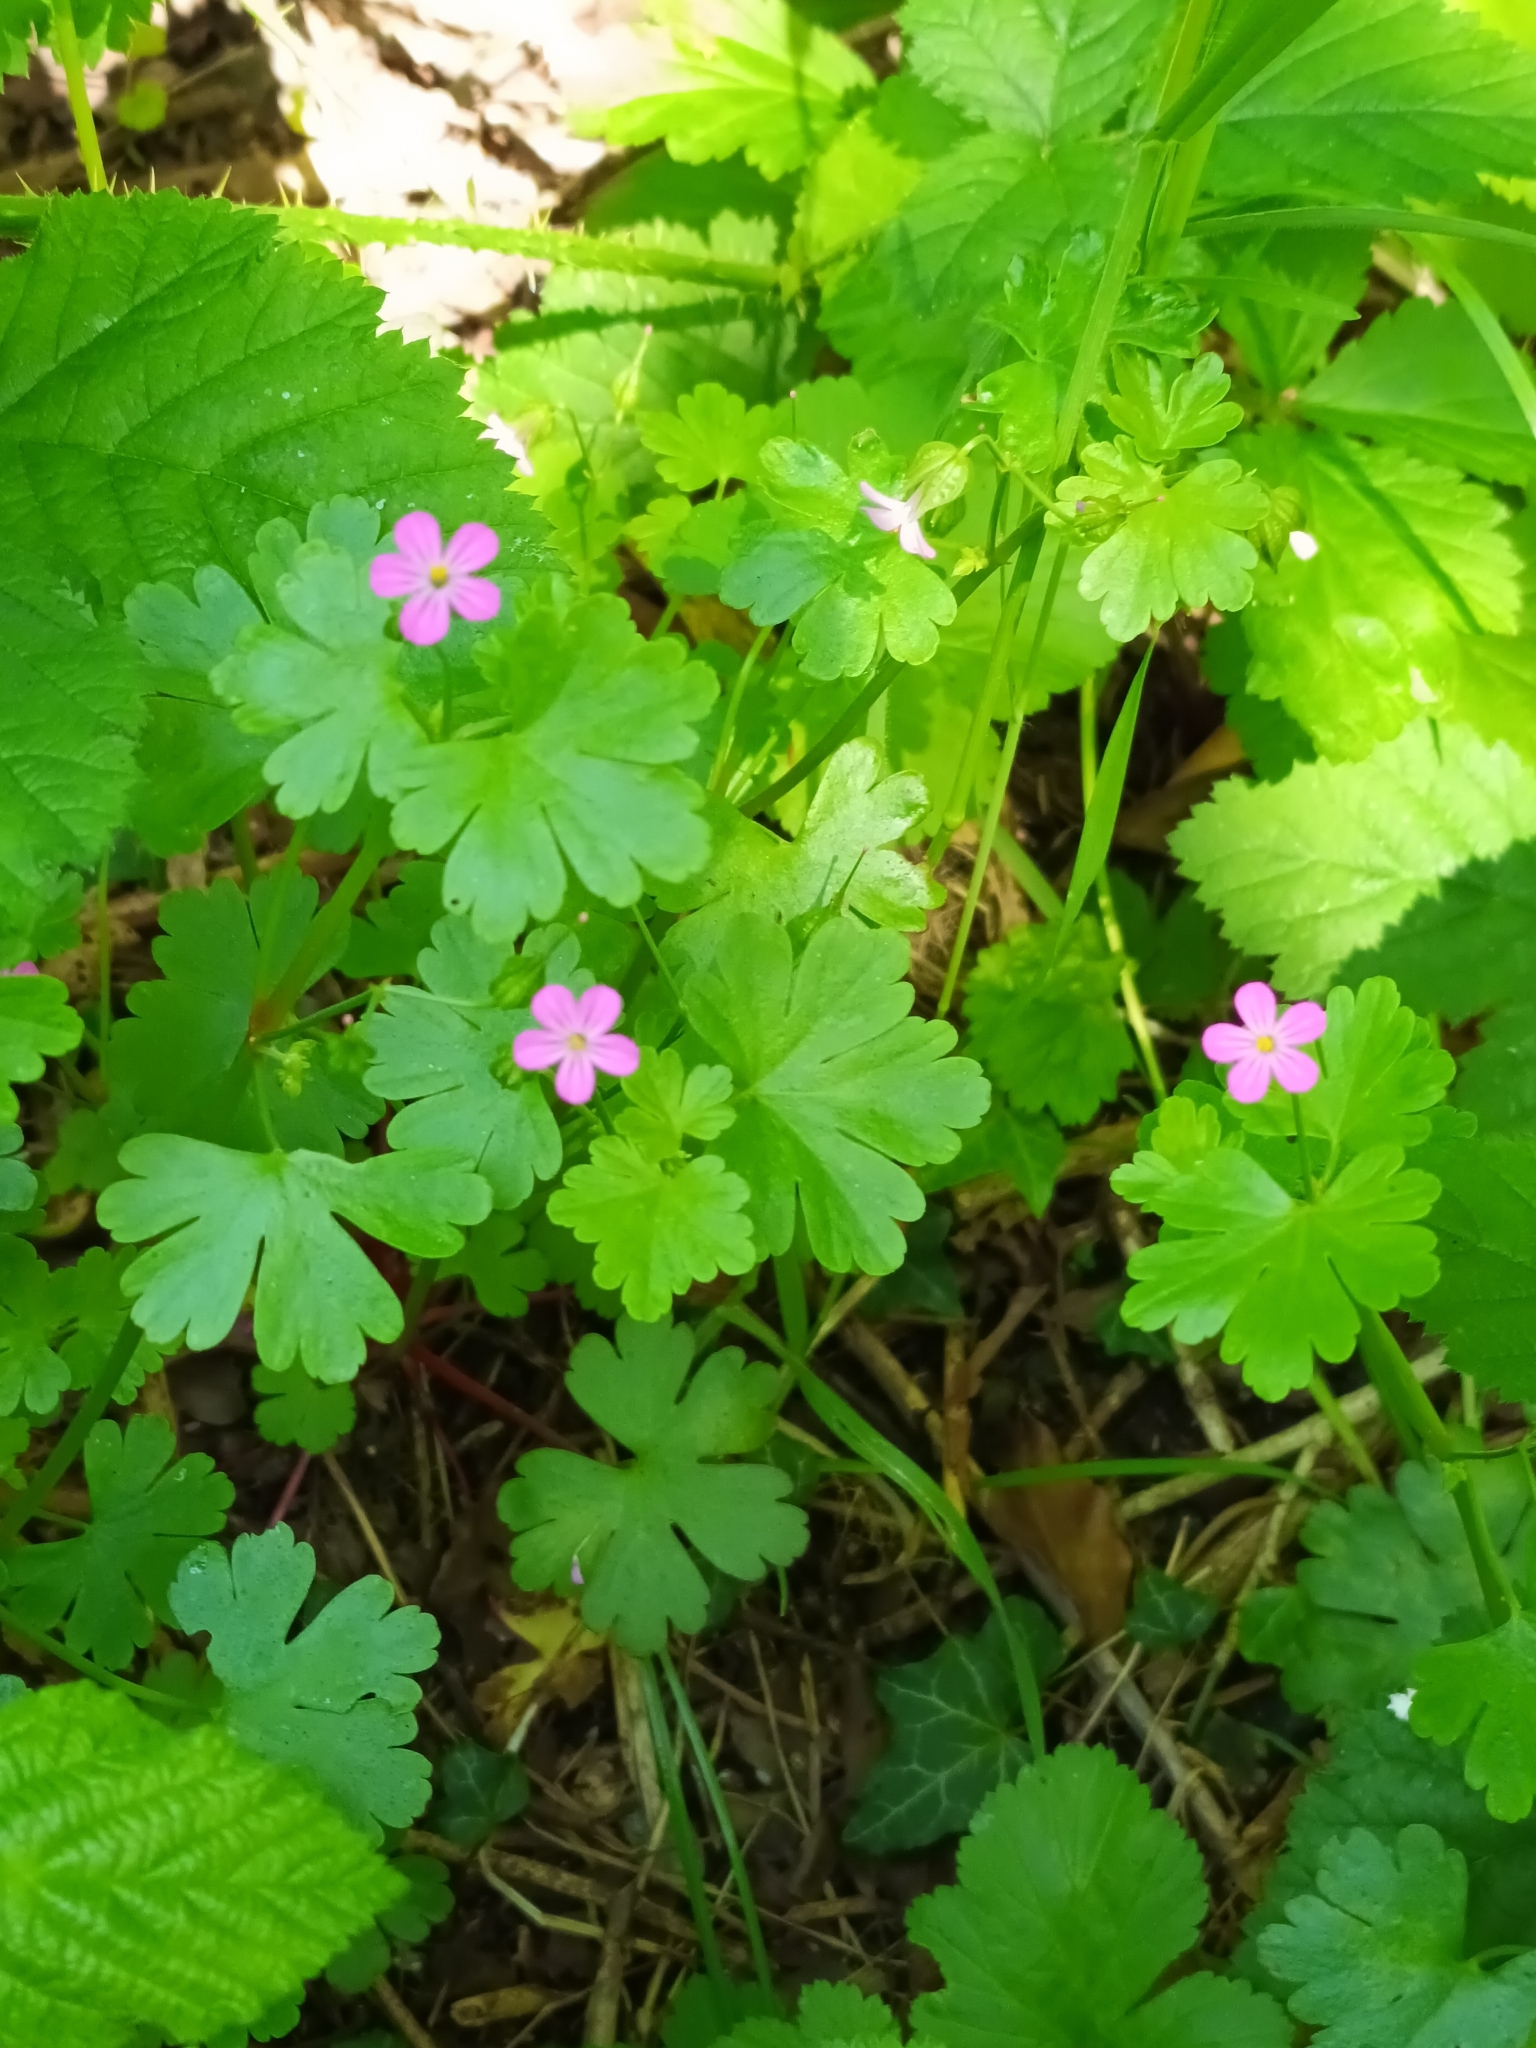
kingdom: Plantae
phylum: Tracheophyta
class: Magnoliopsida
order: Geraniales
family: Geraniaceae
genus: Geranium
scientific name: Geranium lucidum
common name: Shining crane's-bill
